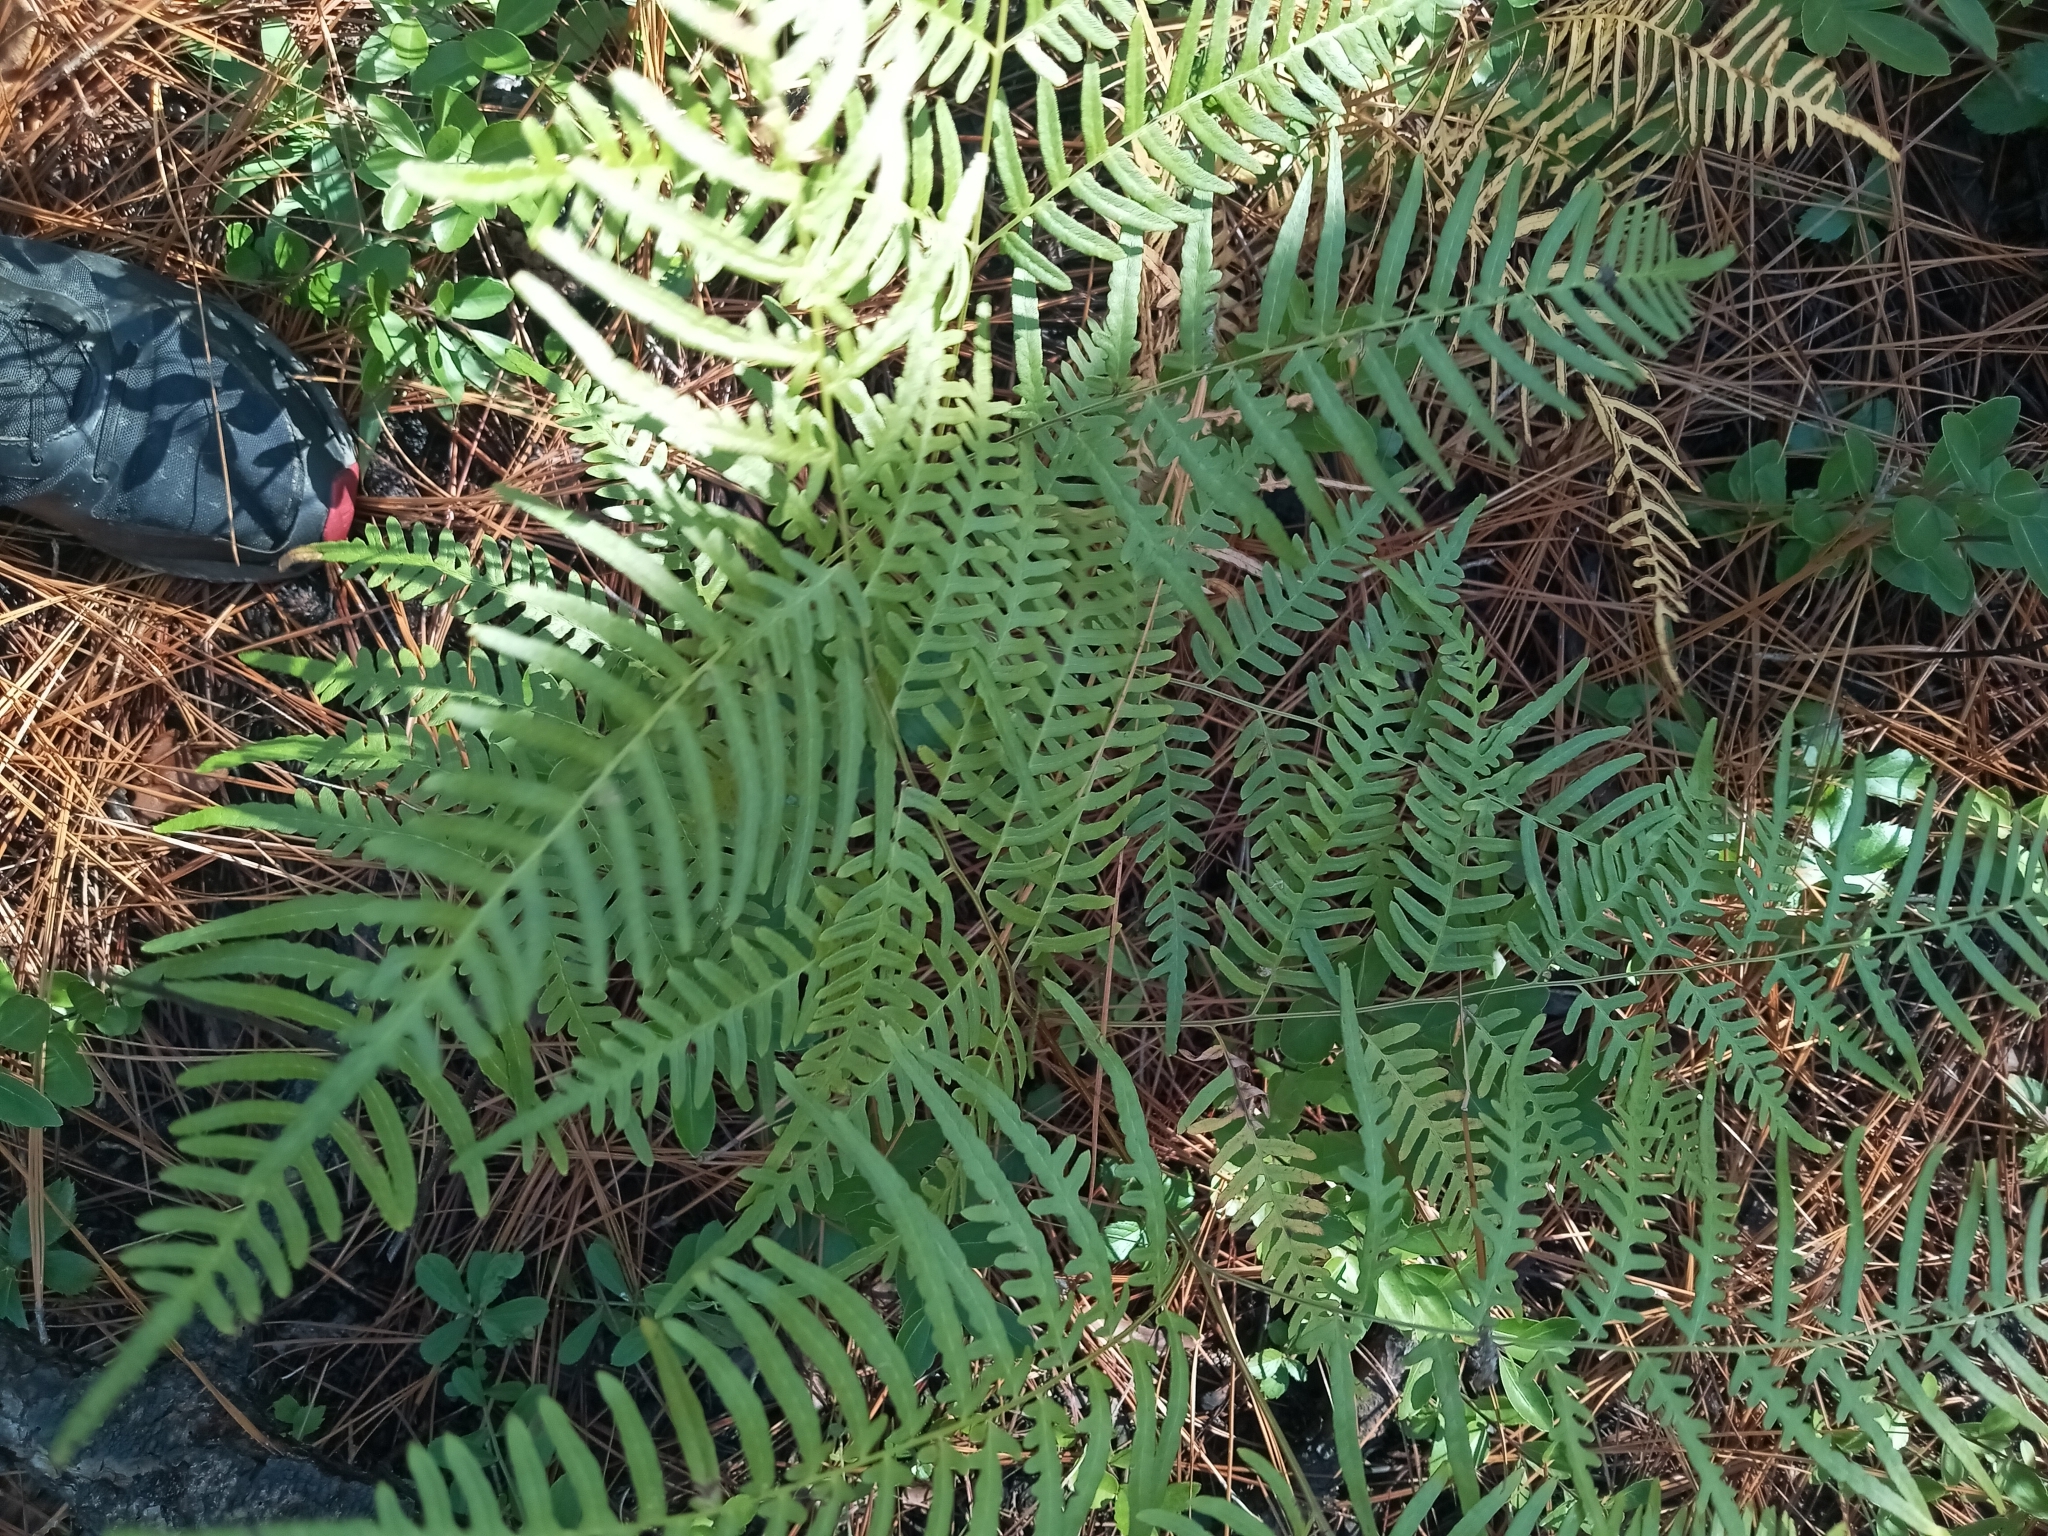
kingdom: Plantae
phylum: Tracheophyta
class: Polypodiopsida
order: Polypodiales
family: Dennstaedtiaceae
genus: Pteridium
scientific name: Pteridium
